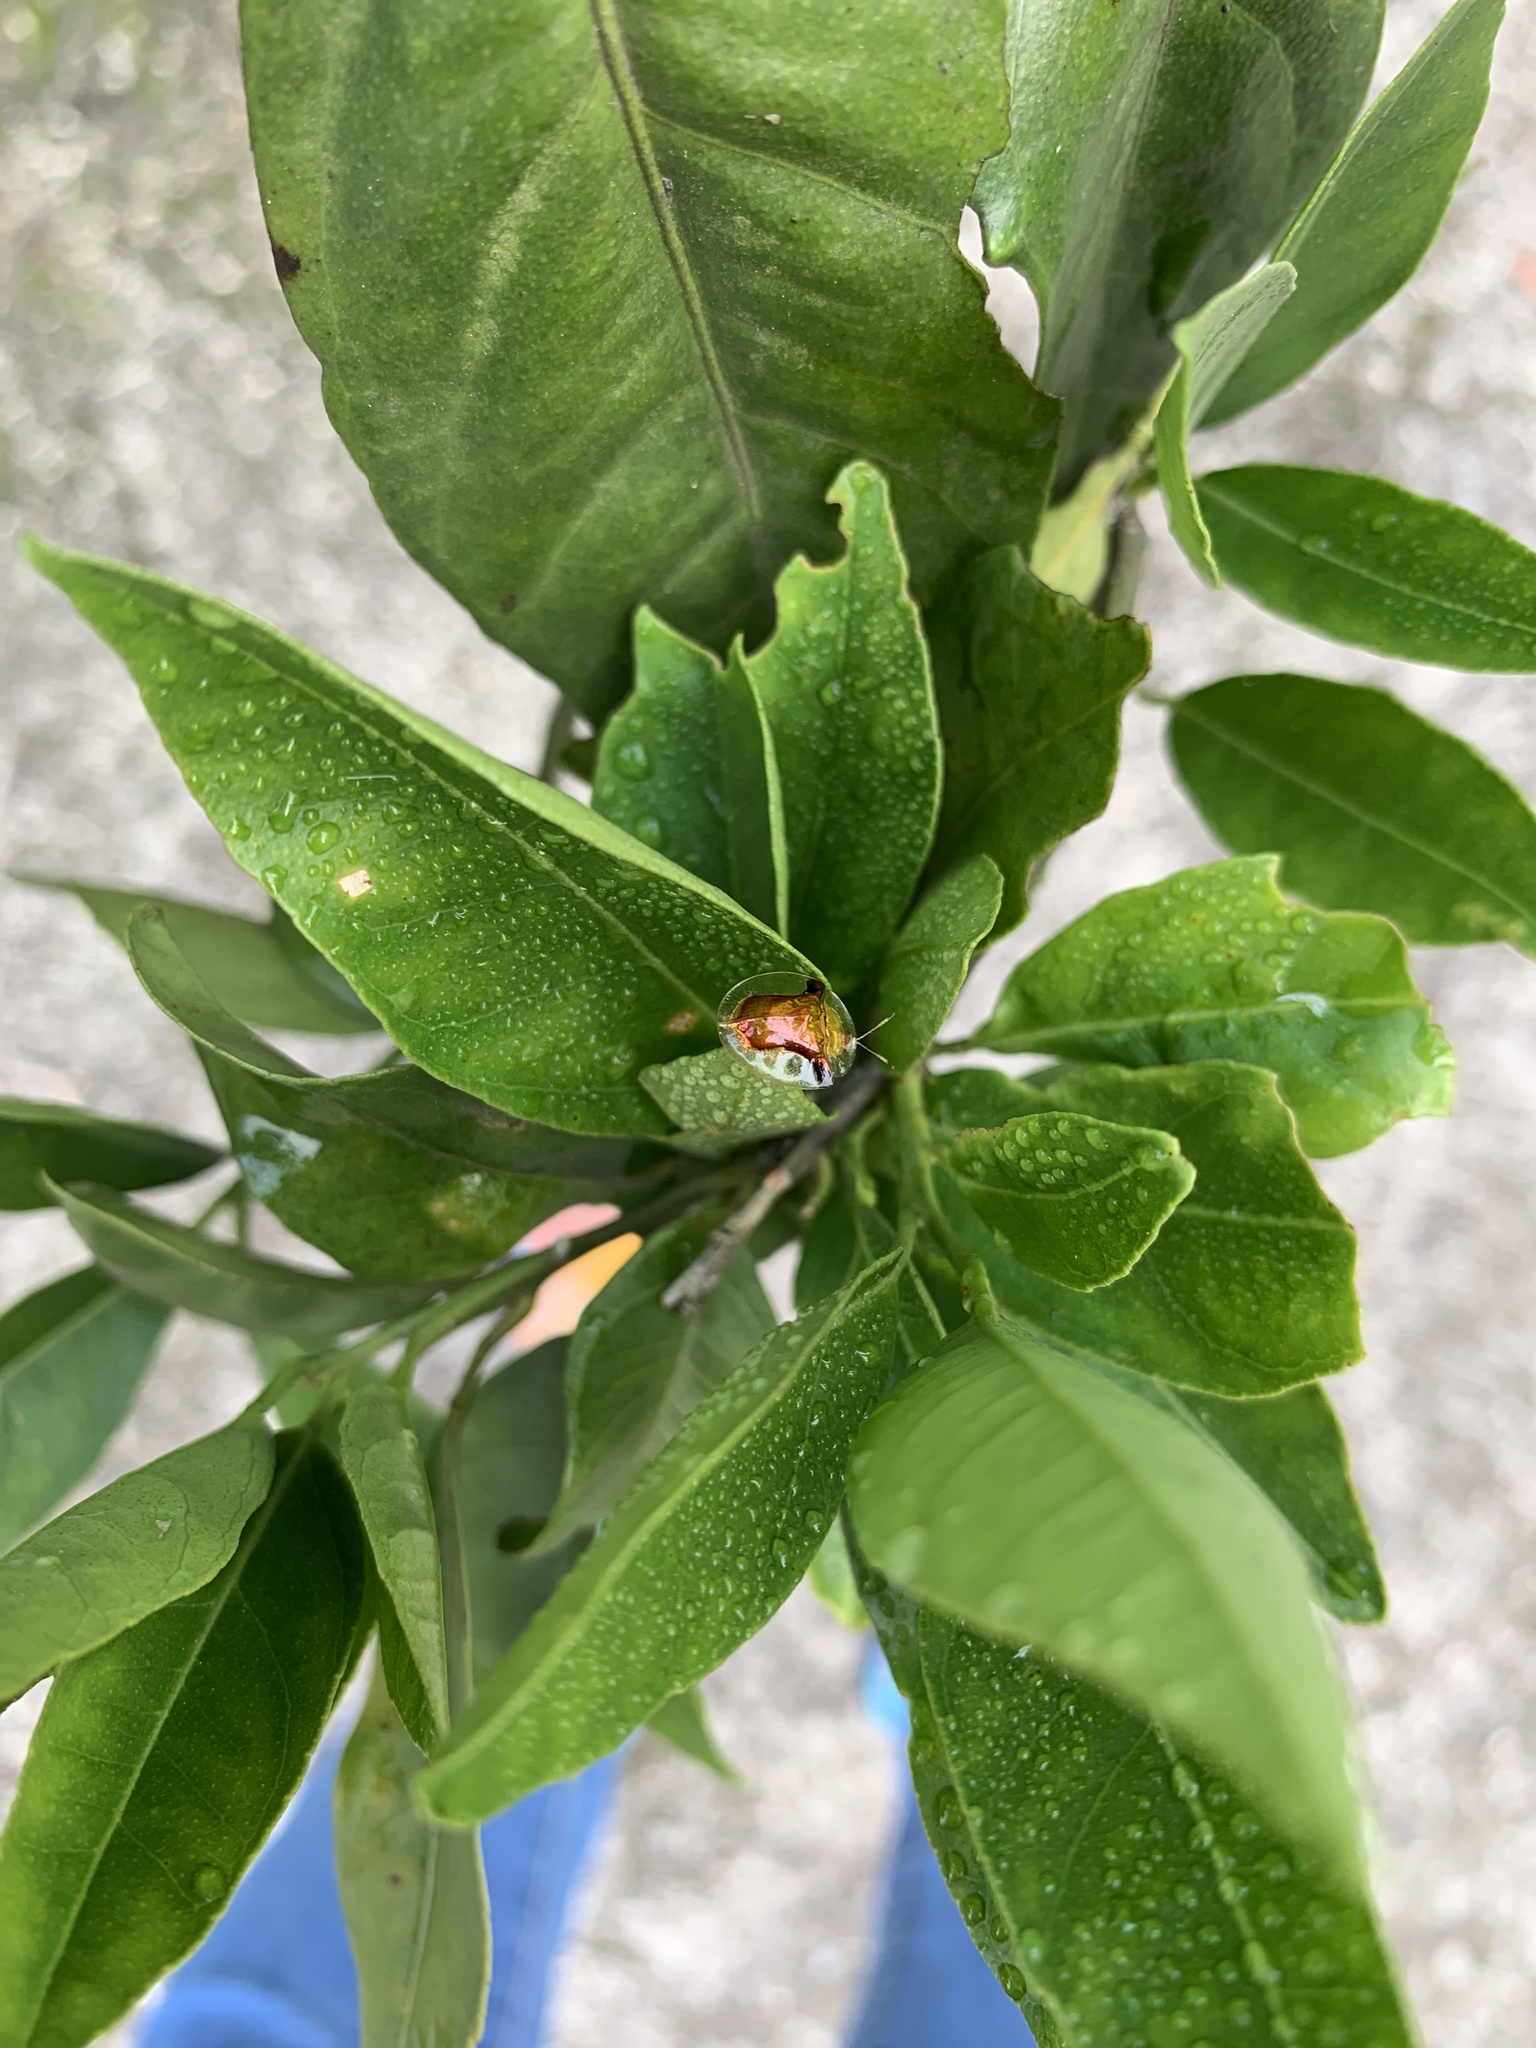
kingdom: Animalia
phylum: Arthropoda
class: Insecta
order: Coleoptera
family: Chrysomelidae
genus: Aspidimorpha
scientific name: Aspidimorpha furcata
